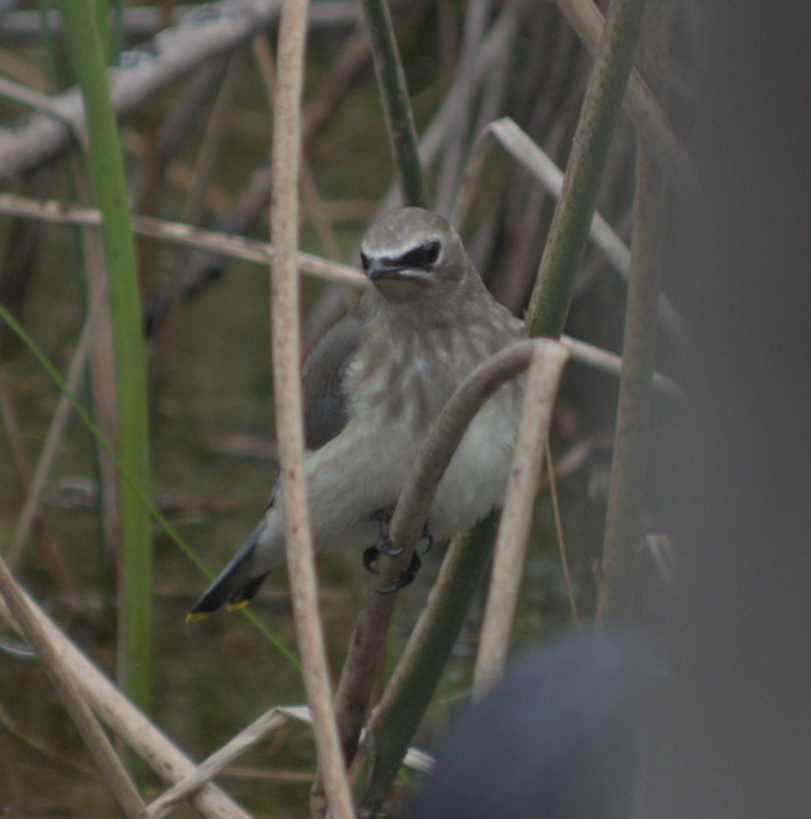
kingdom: Animalia
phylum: Chordata
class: Aves
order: Passeriformes
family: Bombycillidae
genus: Bombycilla
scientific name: Bombycilla cedrorum
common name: Cedar waxwing
